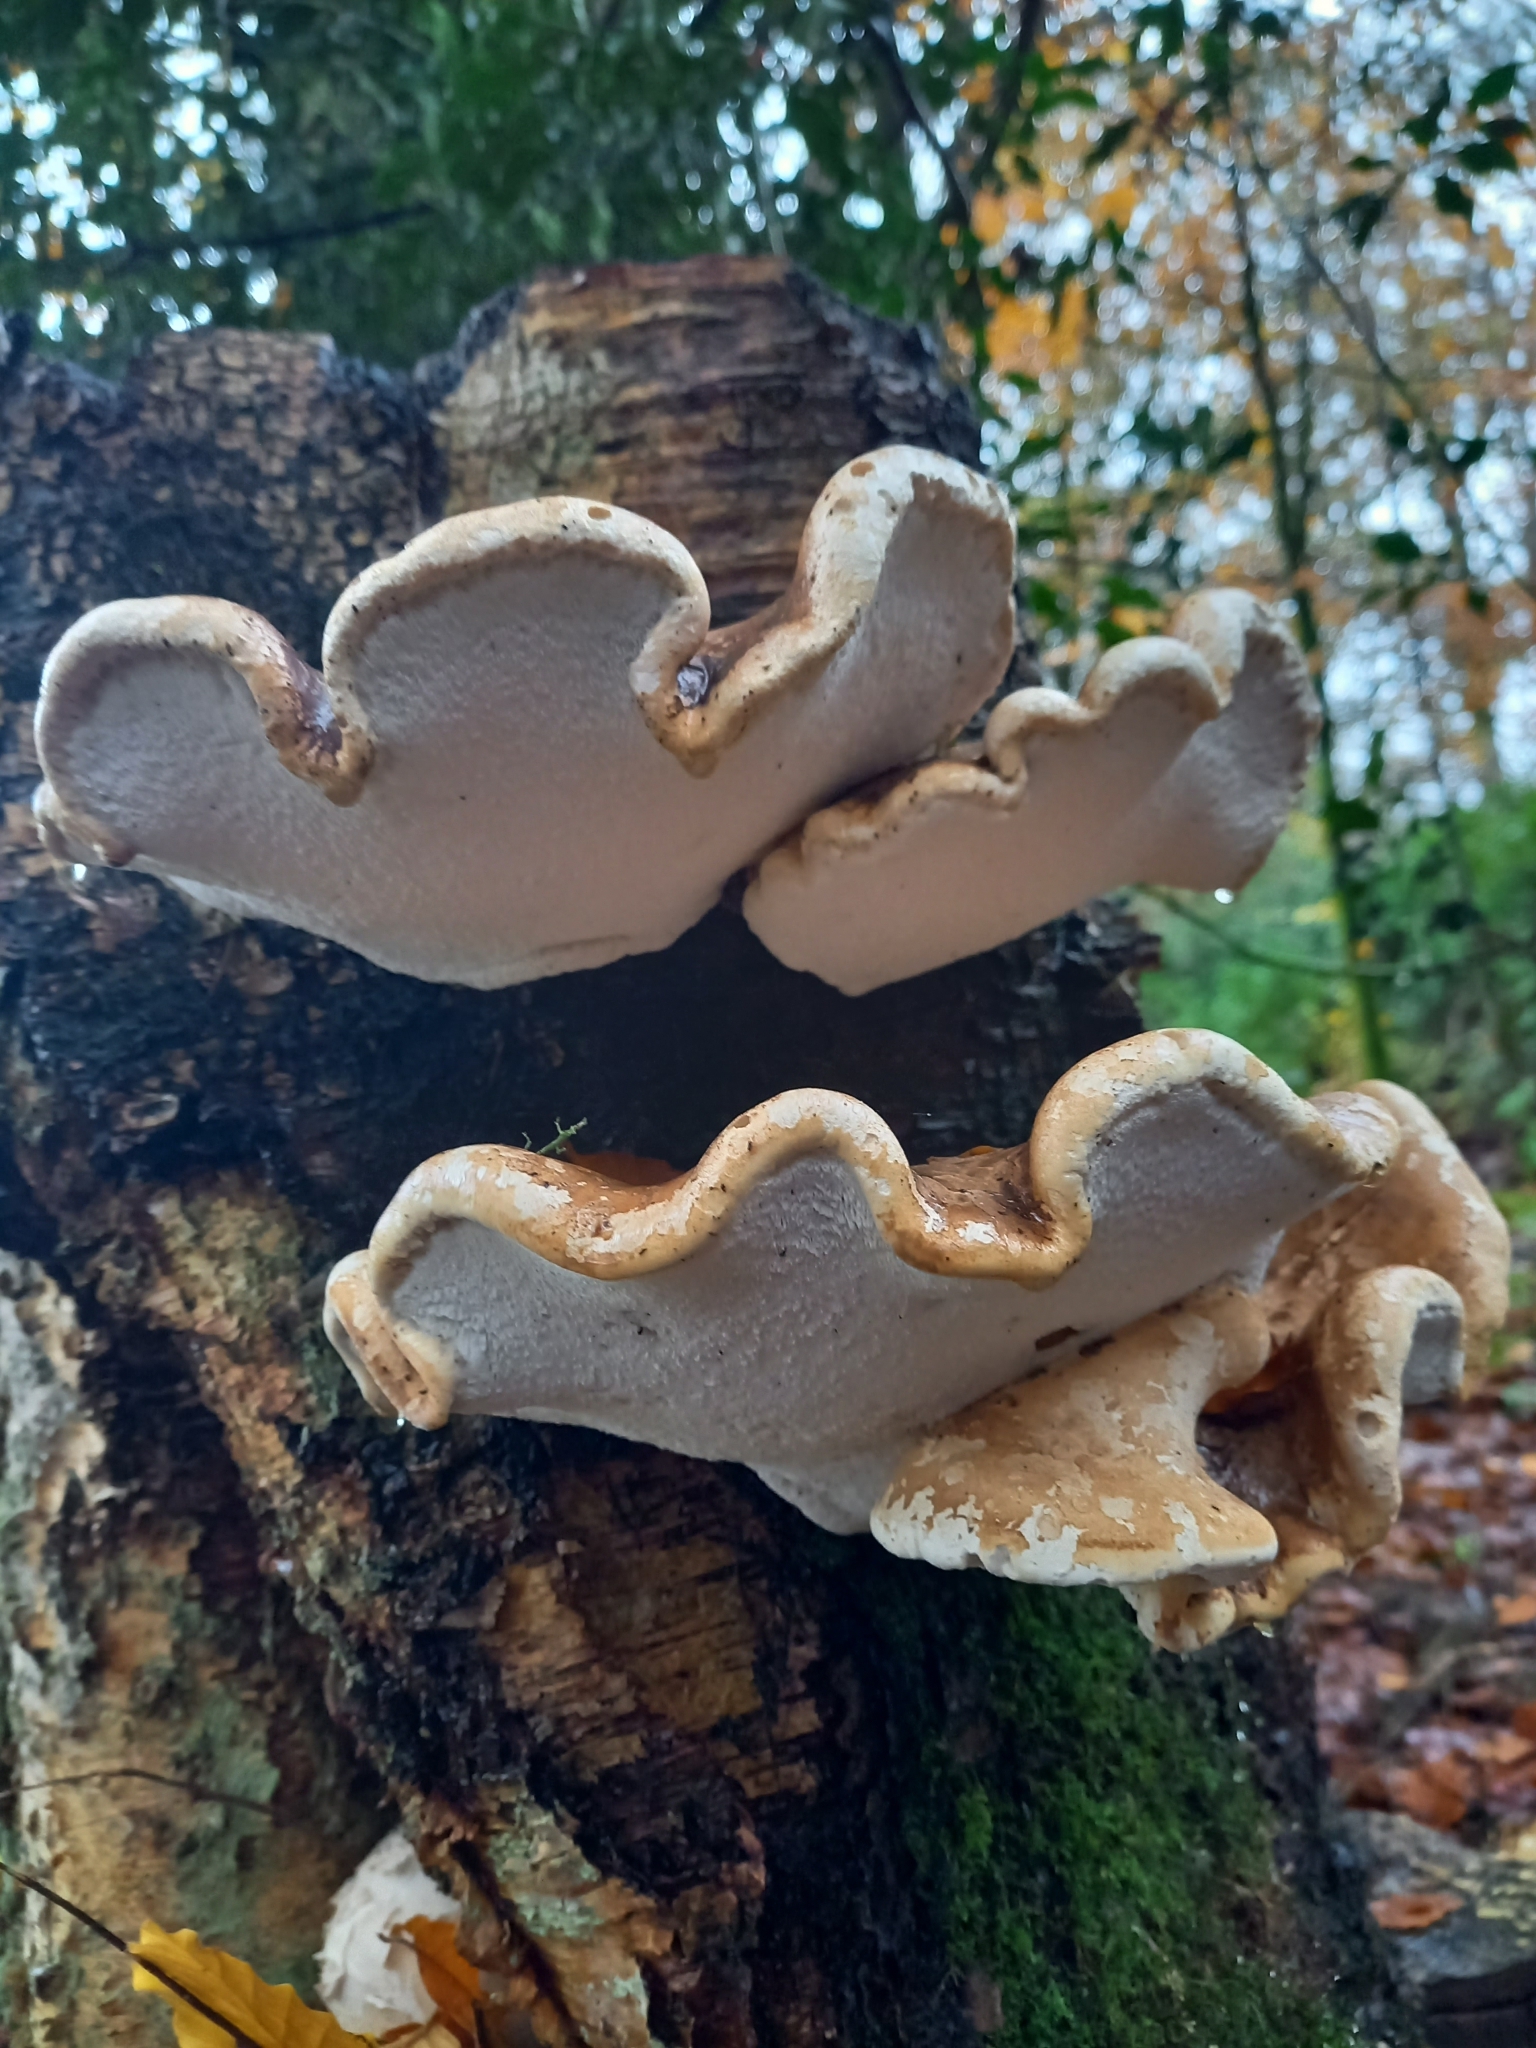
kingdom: Fungi
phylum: Basidiomycota
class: Agaricomycetes
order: Polyporales
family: Fomitopsidaceae
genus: Fomitopsis
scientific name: Fomitopsis betulina
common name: Birch polypore
